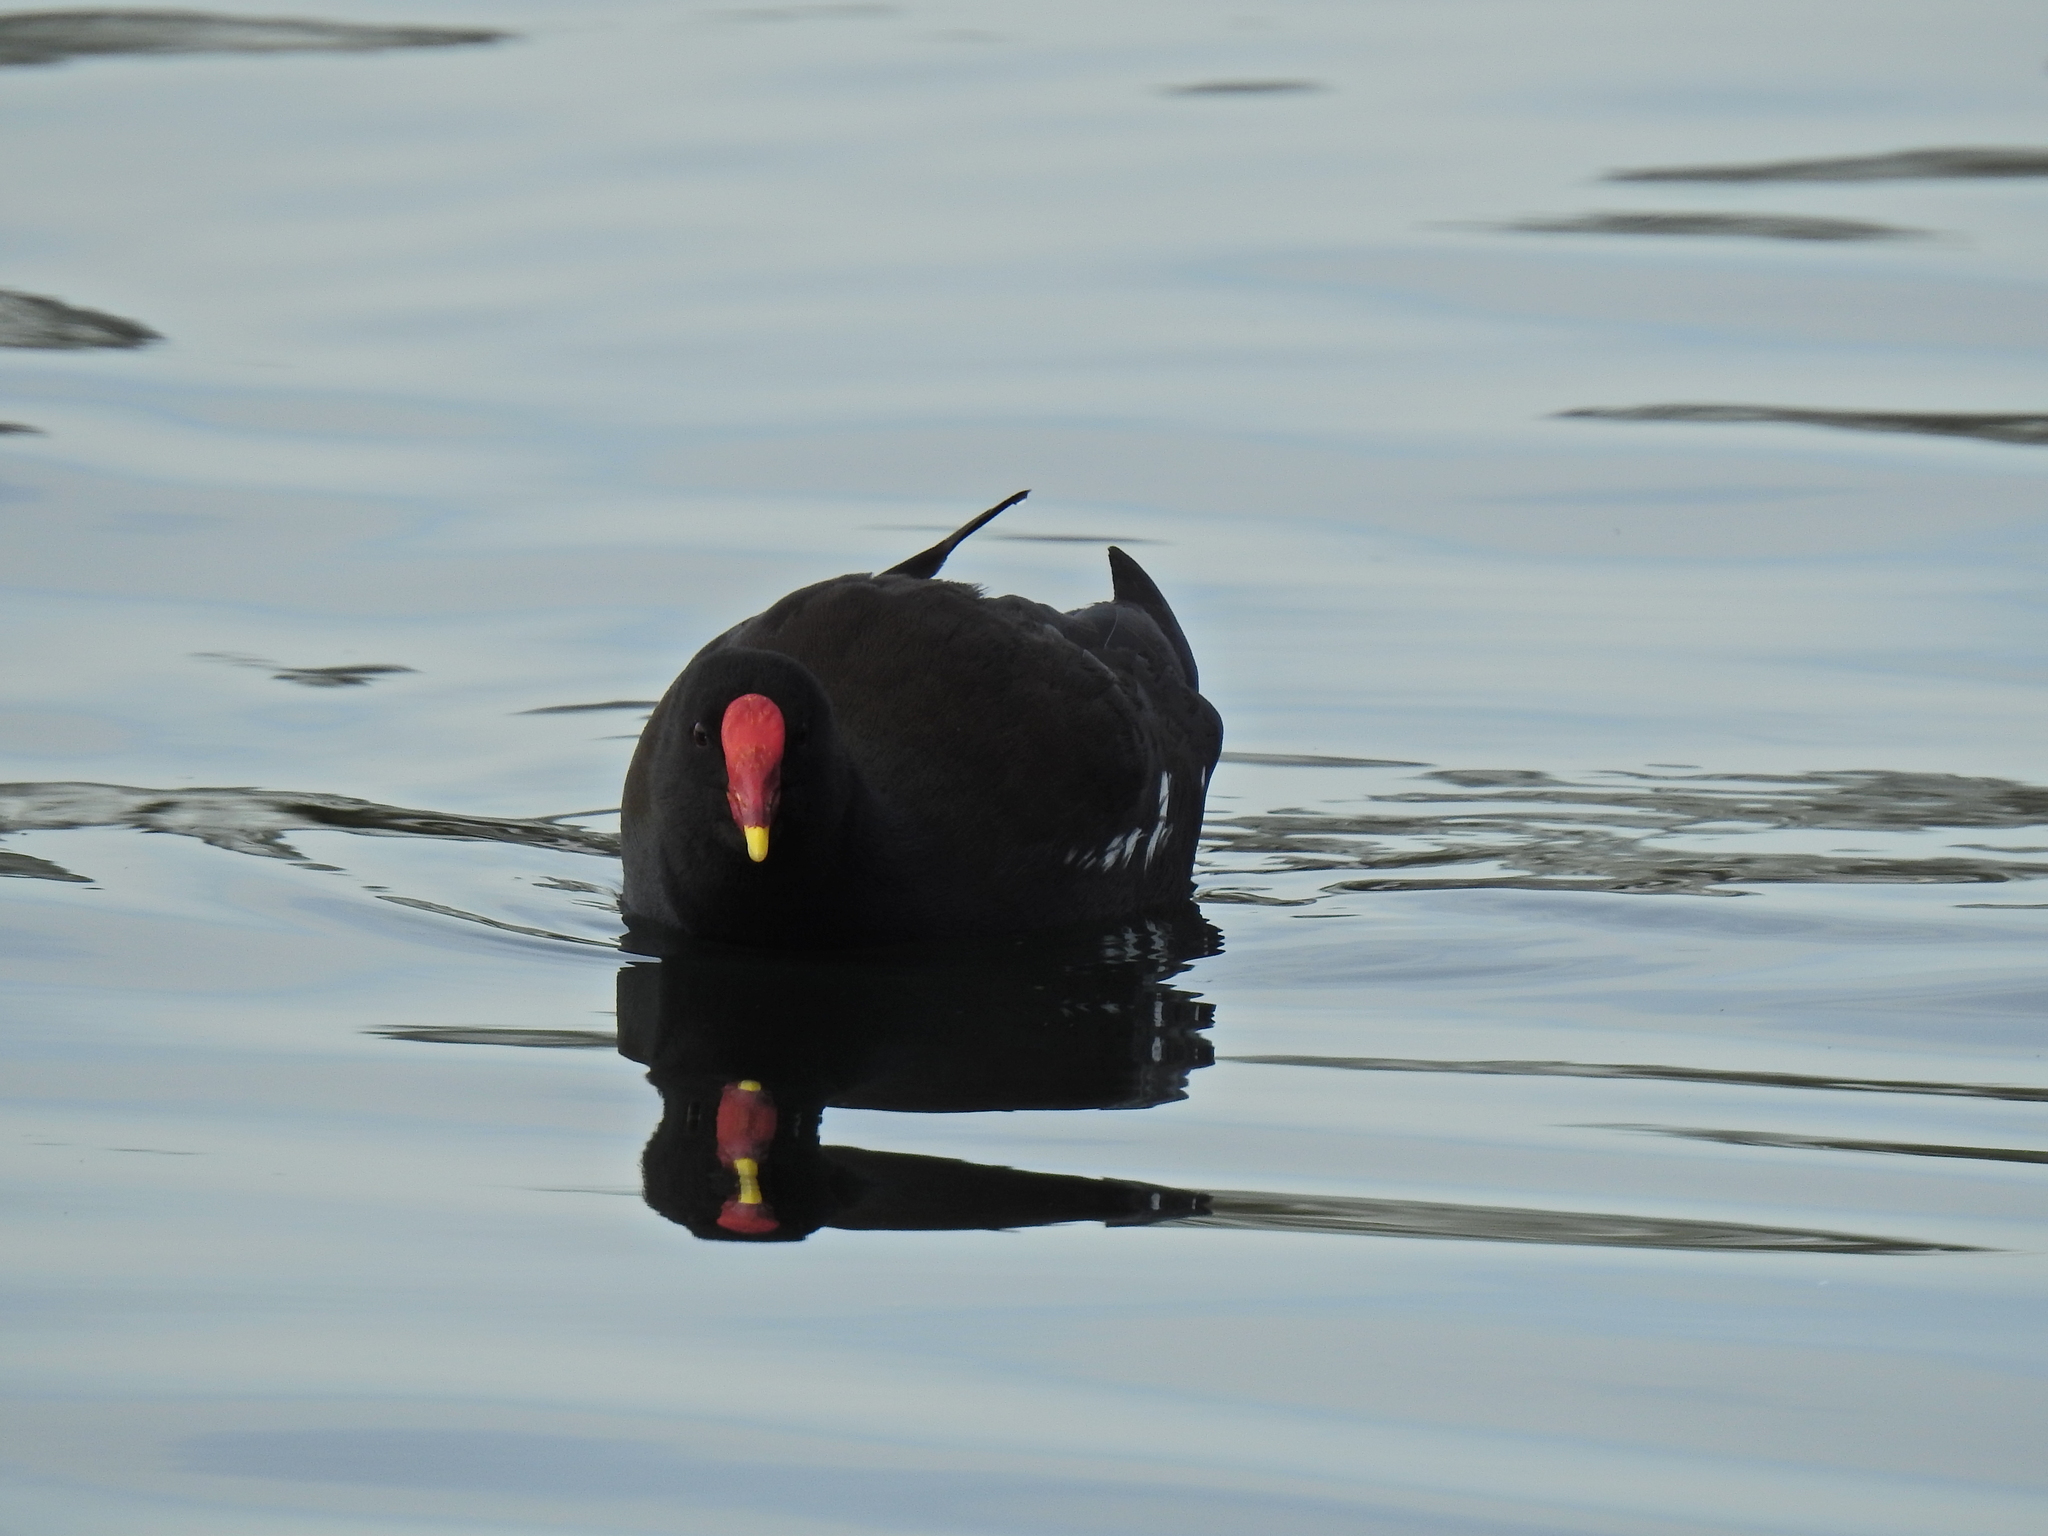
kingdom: Animalia
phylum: Chordata
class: Aves
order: Gruiformes
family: Rallidae
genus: Gallinula
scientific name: Gallinula chloropus
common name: Common moorhen
